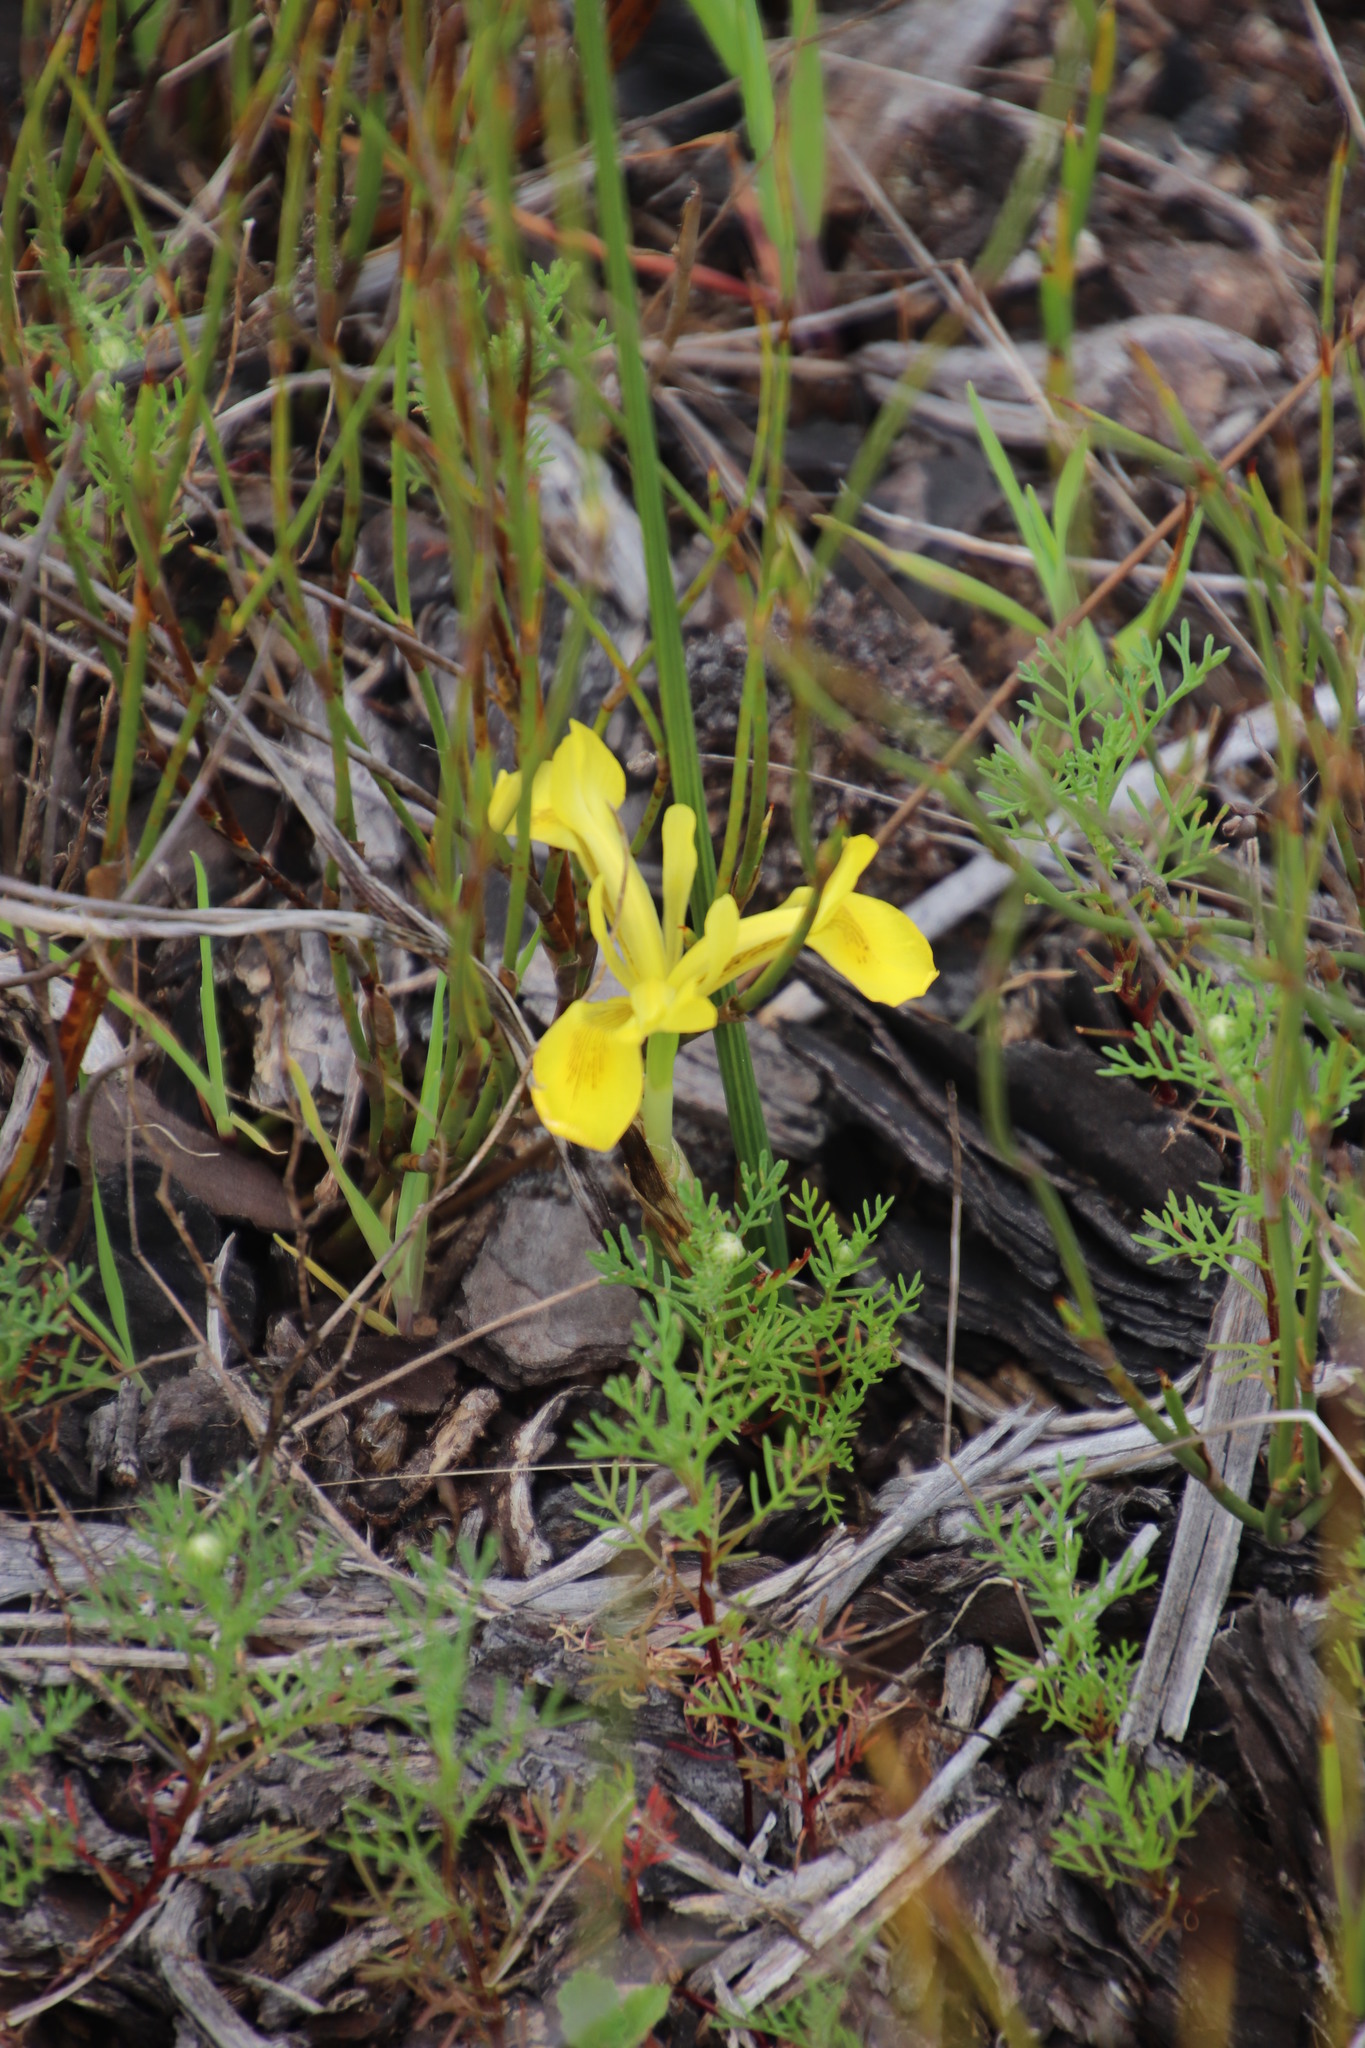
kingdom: Plantae
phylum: Tracheophyta
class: Liliopsida
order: Asparagales
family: Iridaceae
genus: Moraea
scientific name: Moraea neglecta
